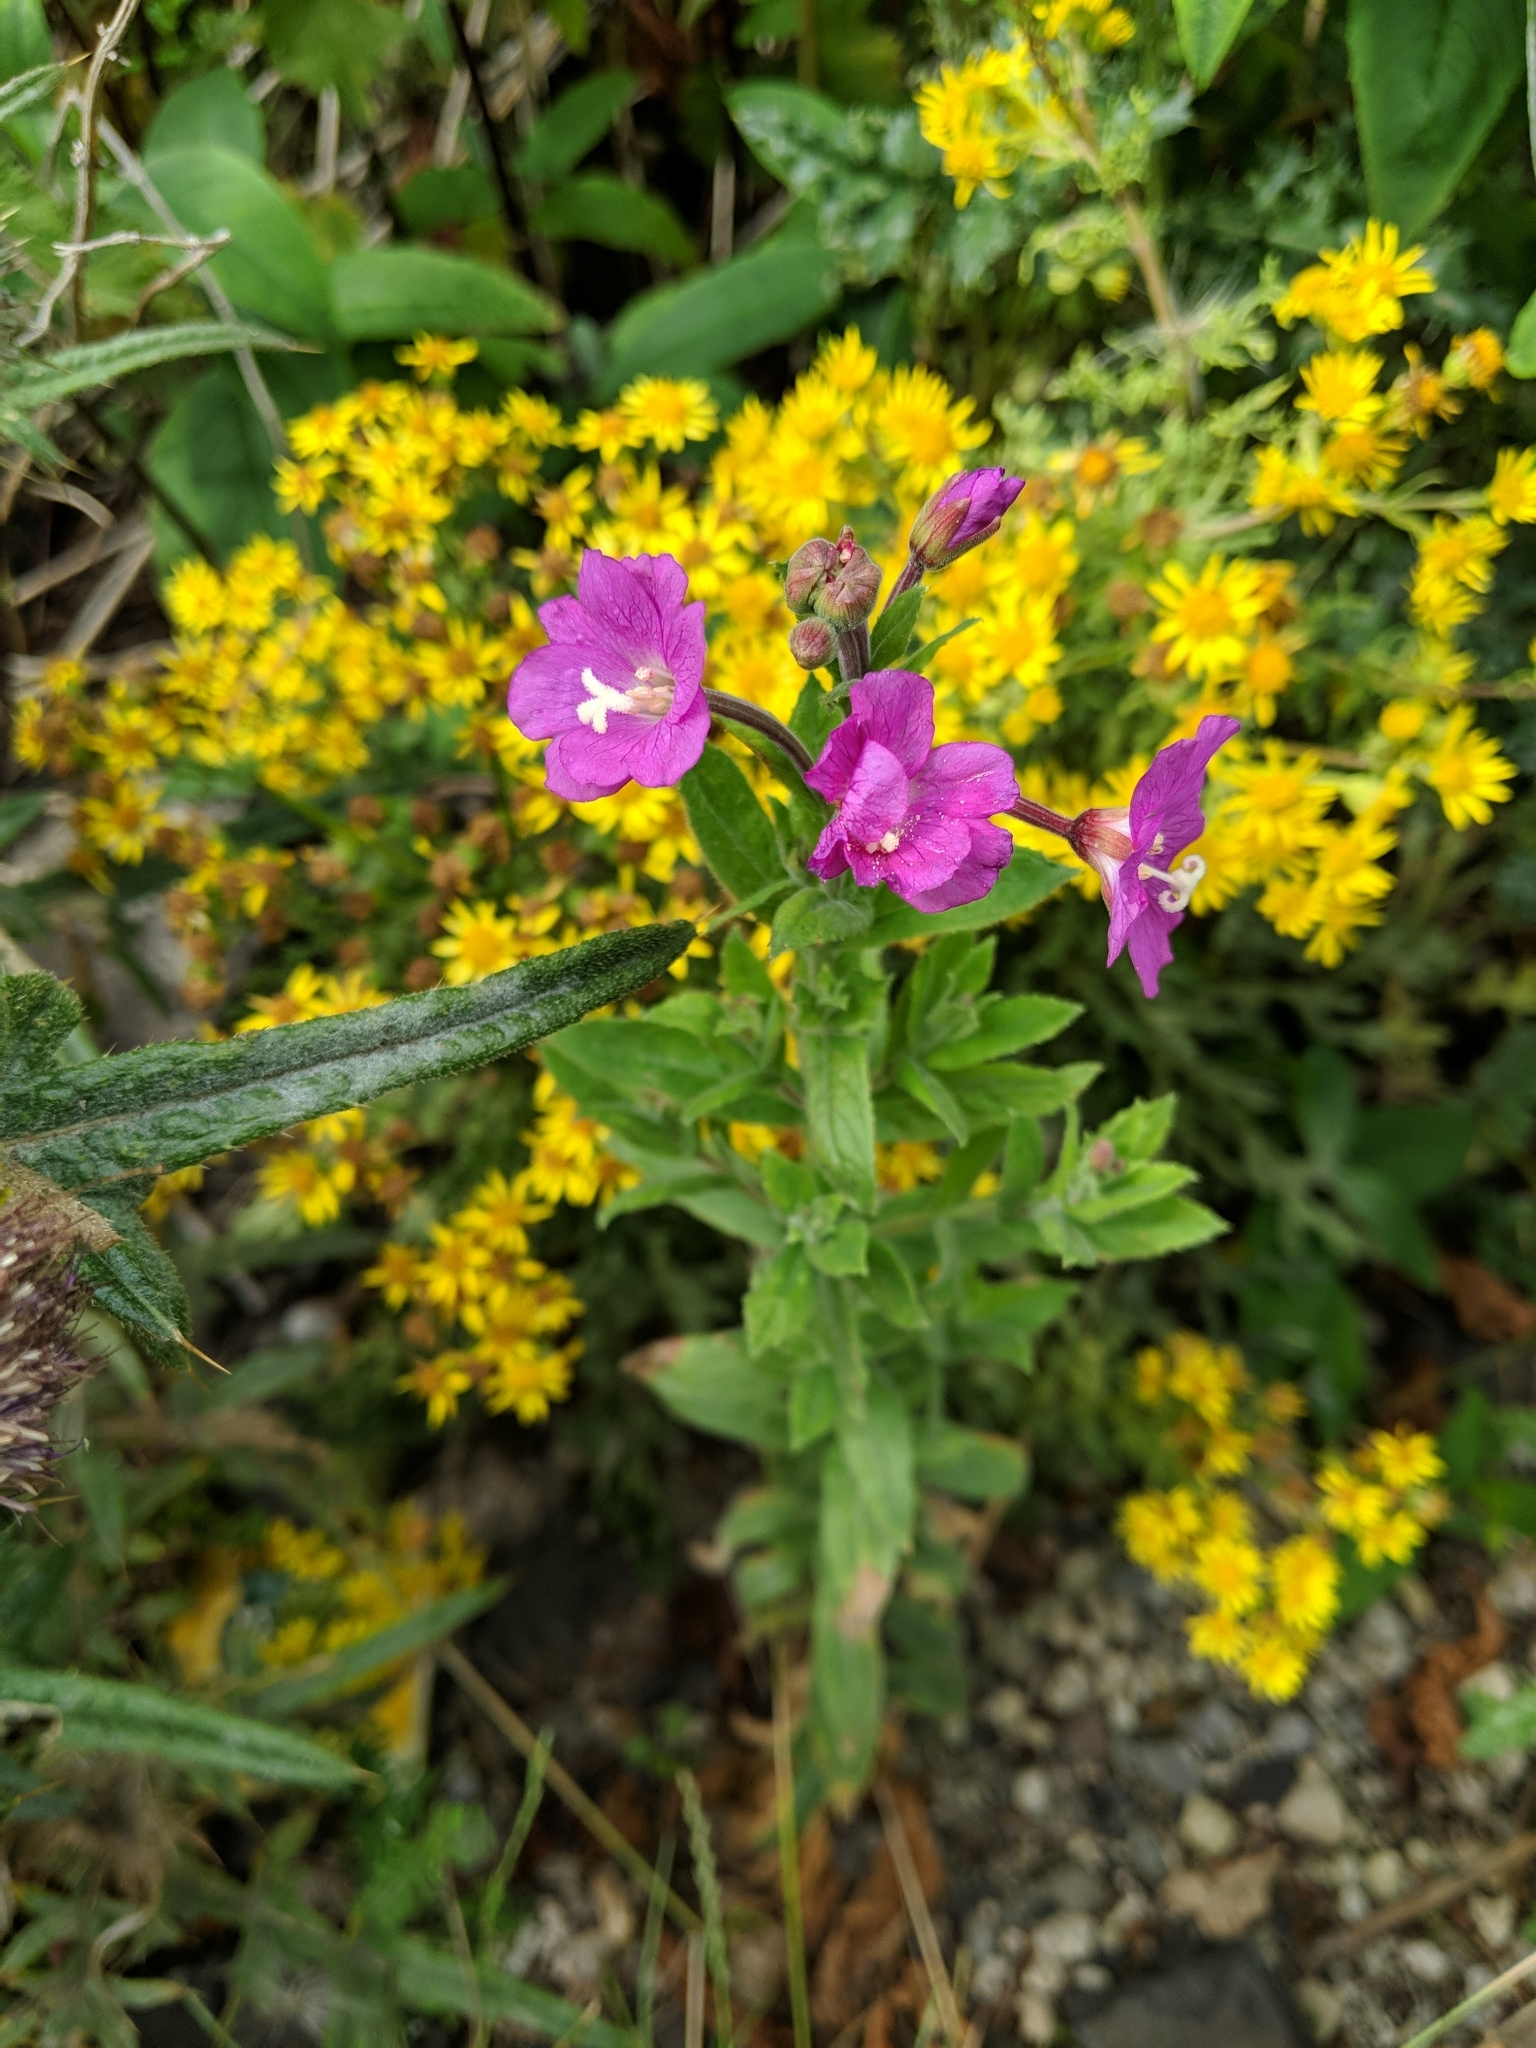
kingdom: Plantae
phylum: Tracheophyta
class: Magnoliopsida
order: Myrtales
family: Onagraceae
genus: Epilobium
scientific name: Epilobium hirsutum
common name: Great willowherb
